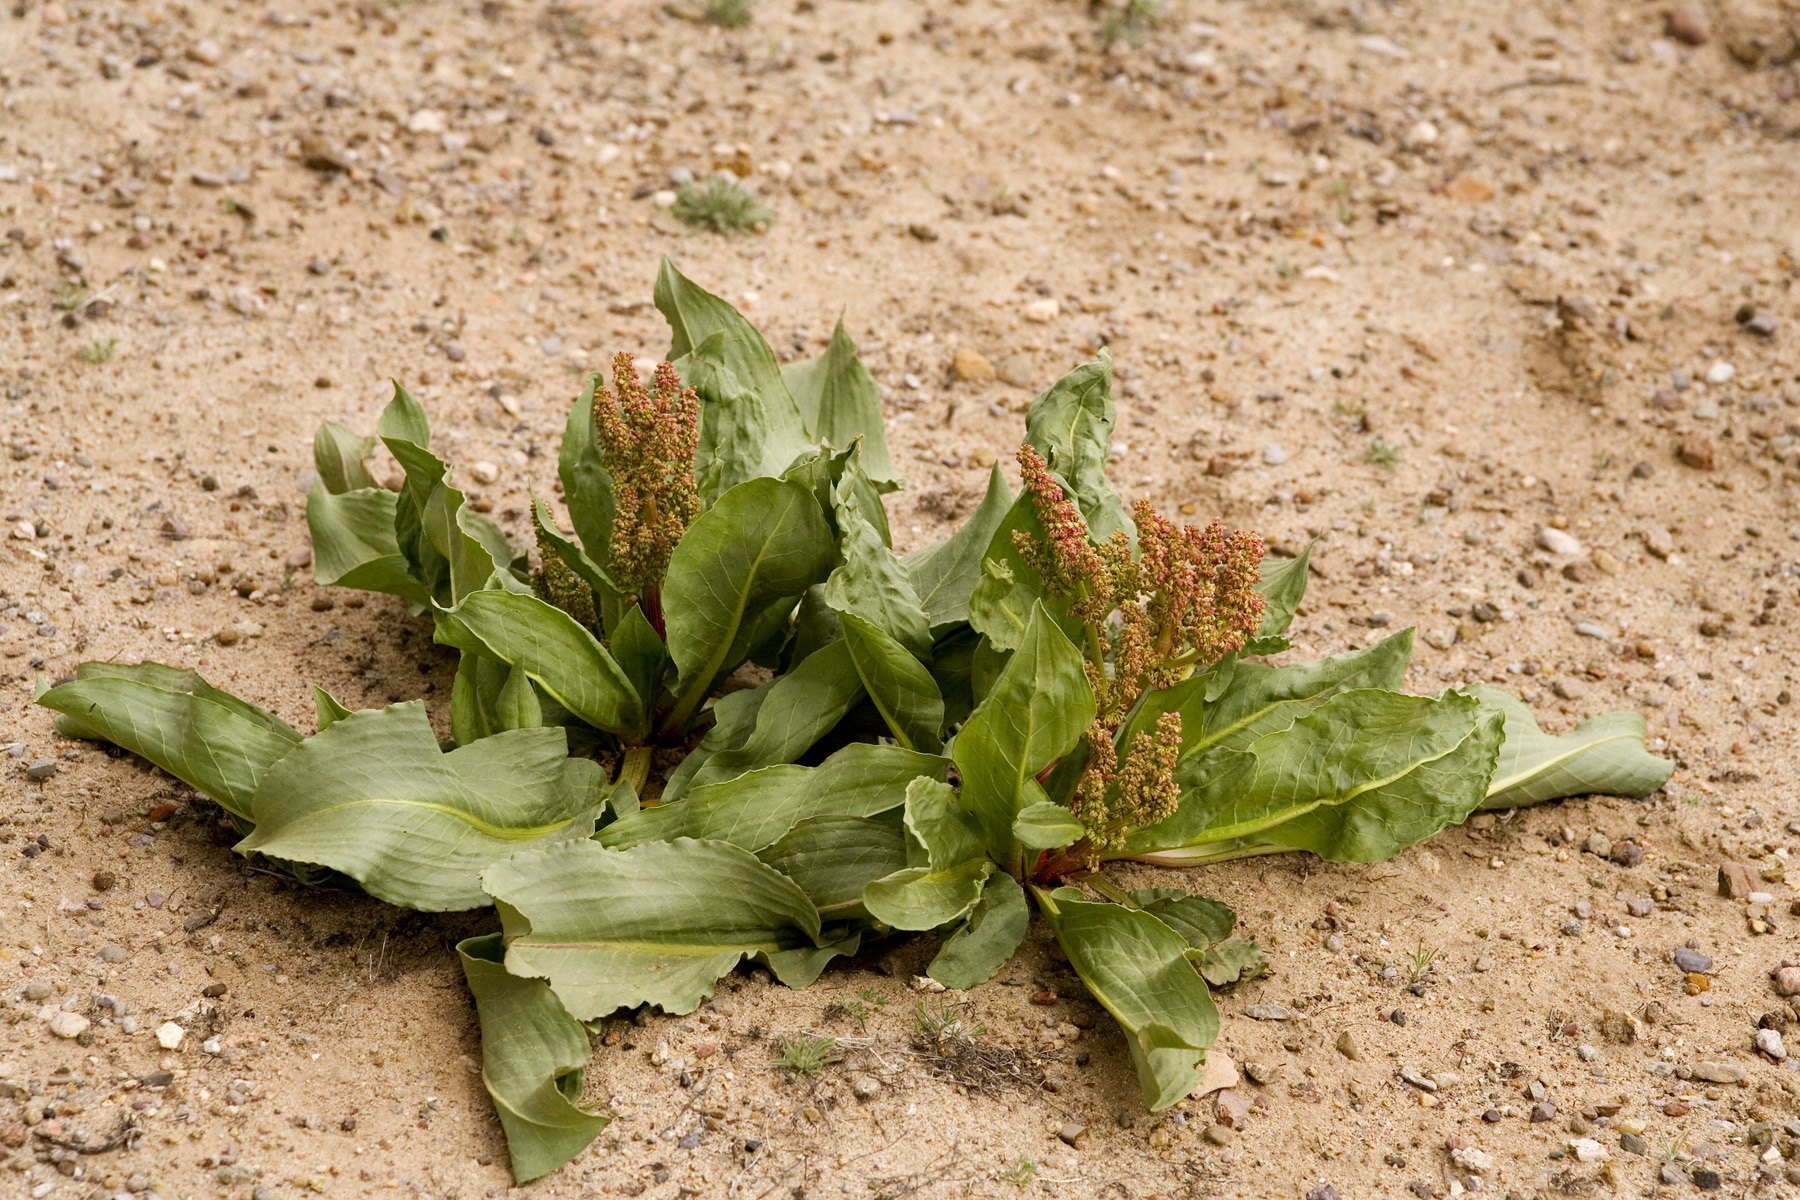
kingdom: Plantae
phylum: Tracheophyta
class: Magnoliopsida
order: Caryophyllales
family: Polygonaceae
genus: Rumex
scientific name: Rumex hymenosepalus
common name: Ganagra
